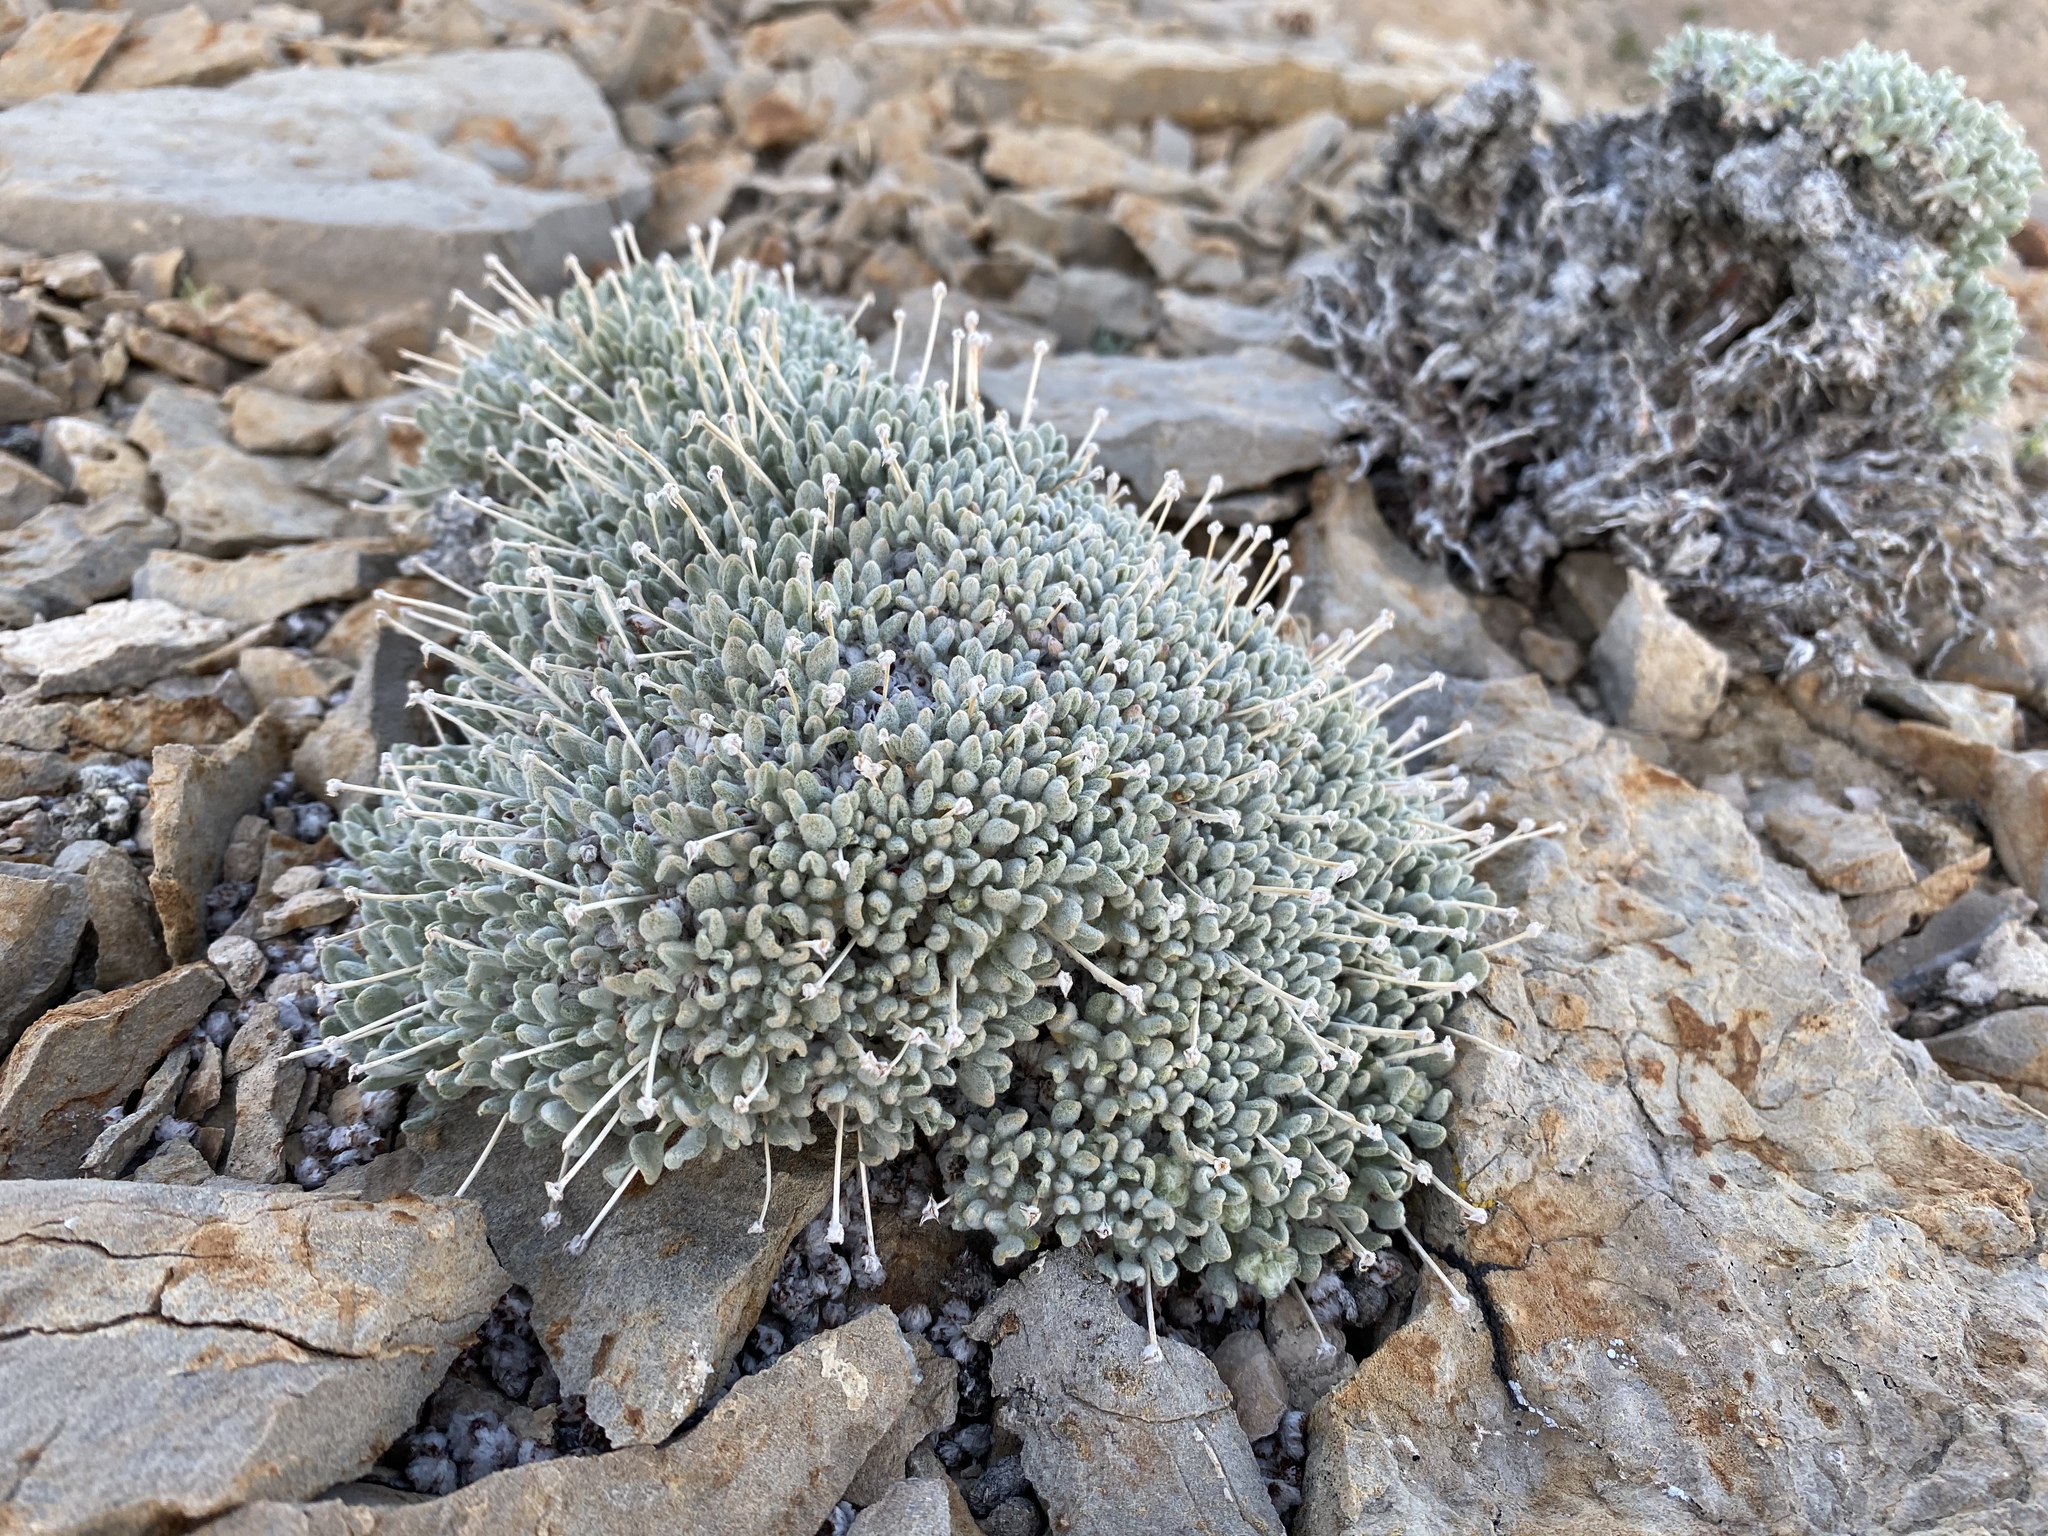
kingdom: Plantae
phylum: Tracheophyta
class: Magnoliopsida
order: Caryophyllales
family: Polygonaceae
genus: Eriogonum
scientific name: Eriogonum shockleyi
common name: Shockley's wild buckwheat
